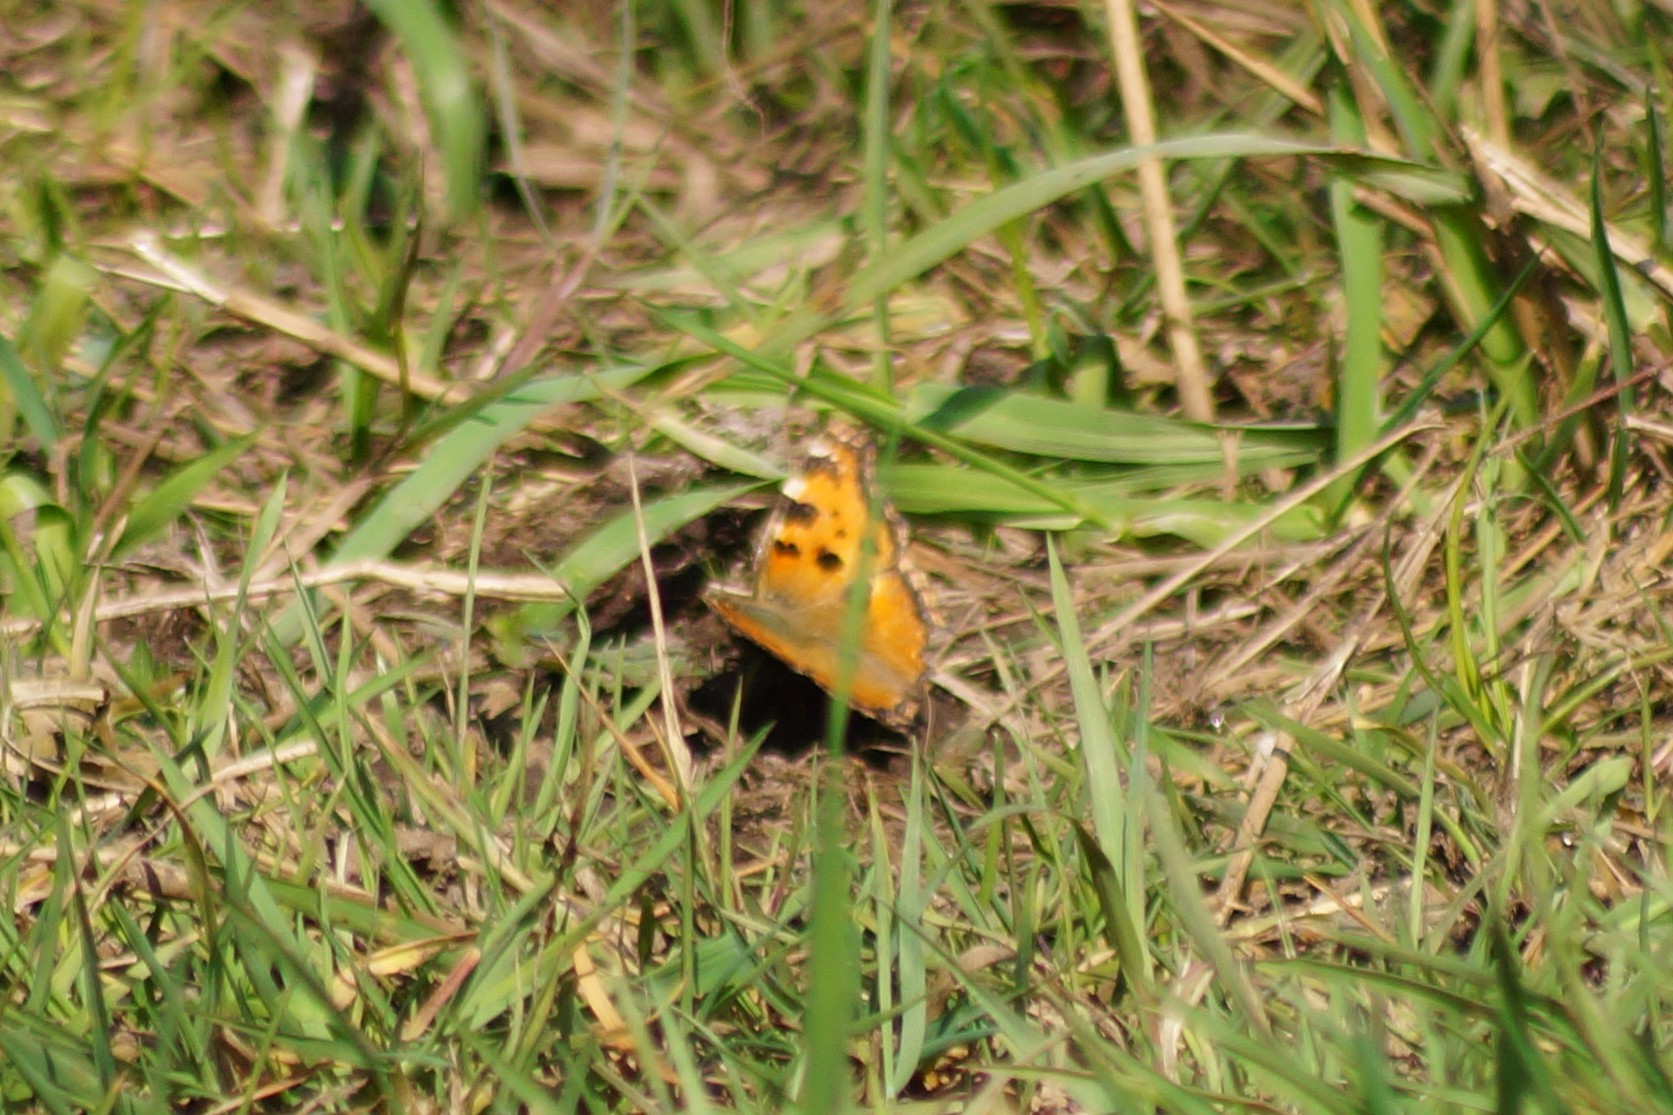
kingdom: Animalia
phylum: Arthropoda
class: Insecta
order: Lepidoptera
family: Nymphalidae
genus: Nymphalis
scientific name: Nymphalis polychloros
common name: Large tortoiseshell
